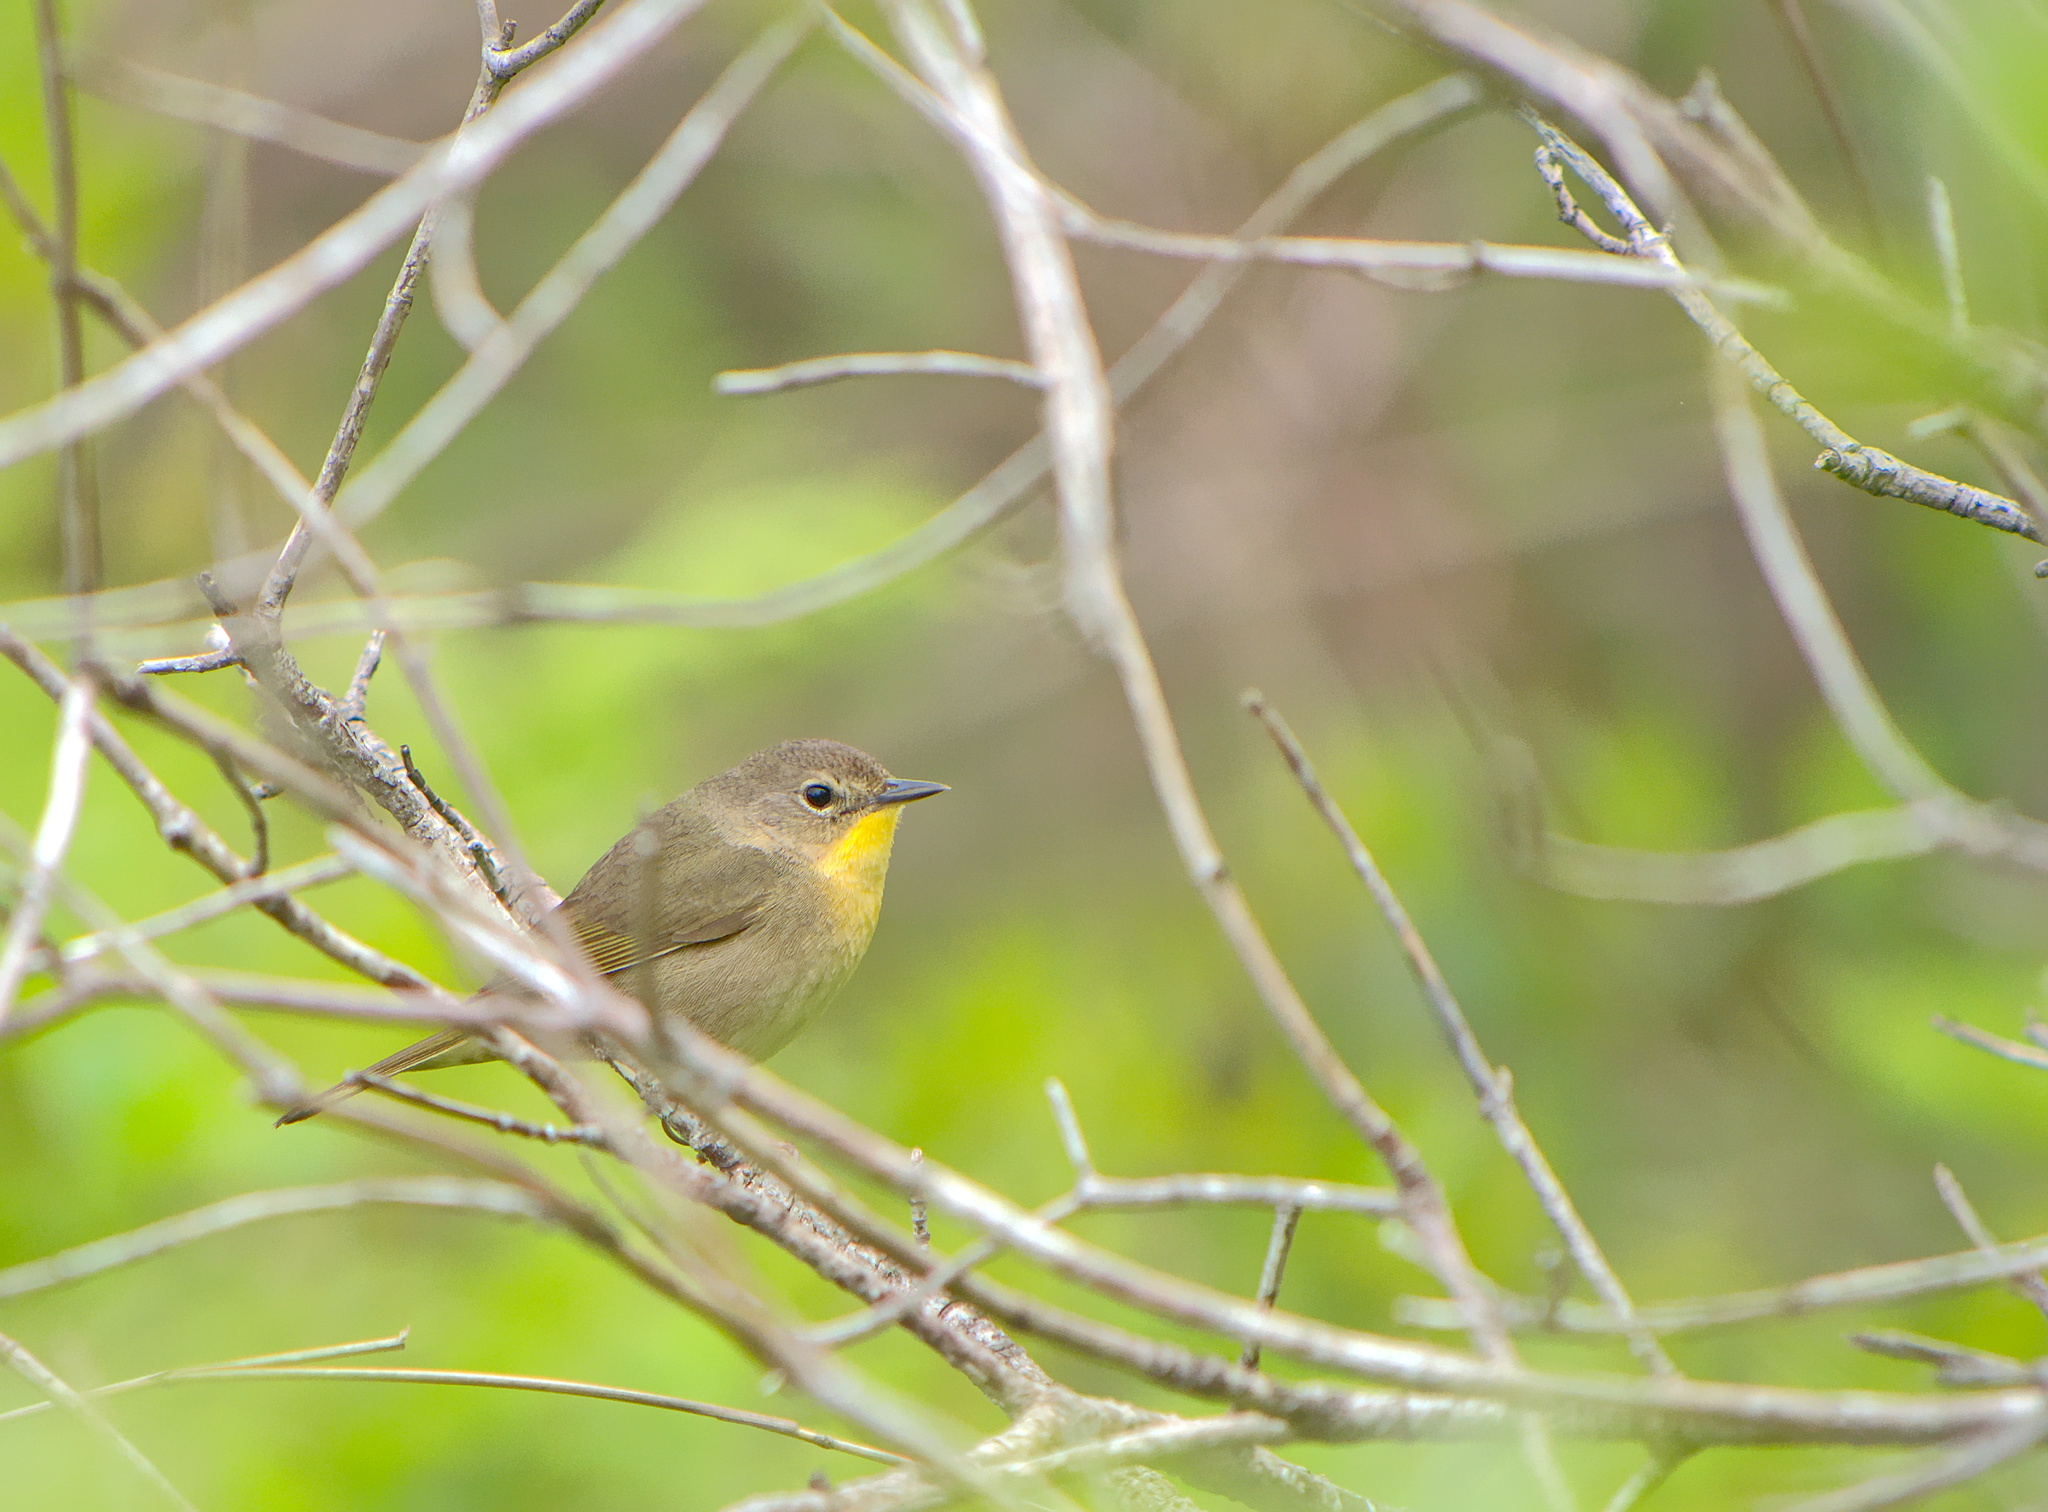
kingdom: Animalia
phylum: Chordata
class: Aves
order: Passeriformes
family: Parulidae
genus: Geothlypis
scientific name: Geothlypis trichas
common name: Common yellowthroat
